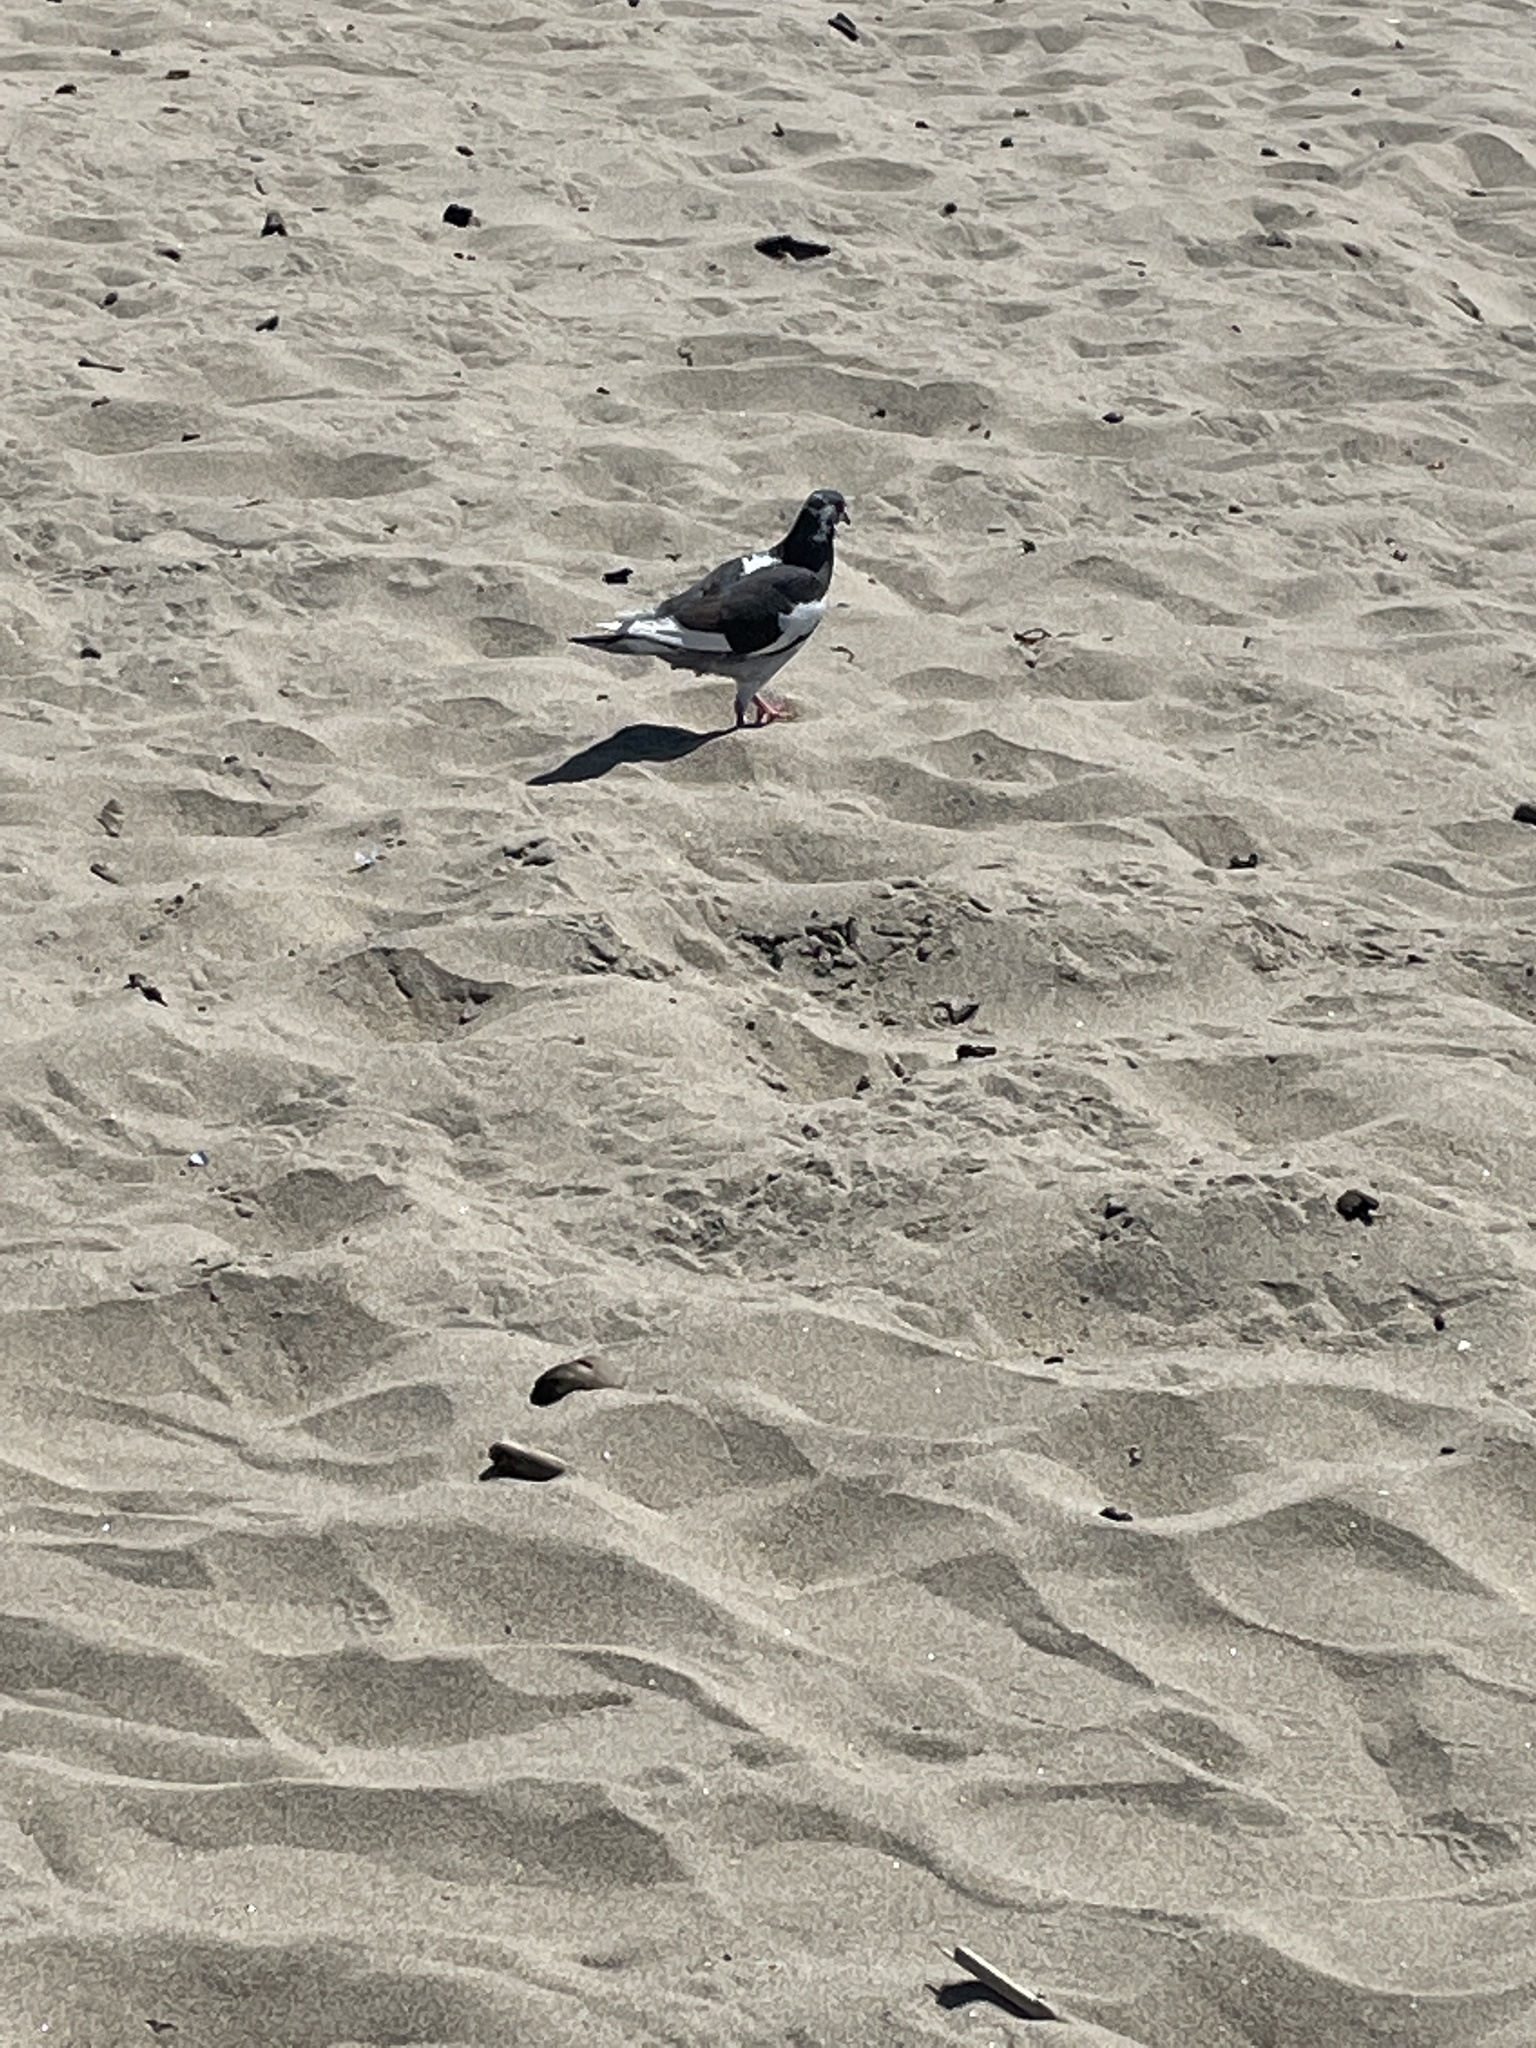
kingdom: Animalia
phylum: Chordata
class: Aves
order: Columbiformes
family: Columbidae
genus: Columba
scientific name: Columba livia
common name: Rock pigeon
